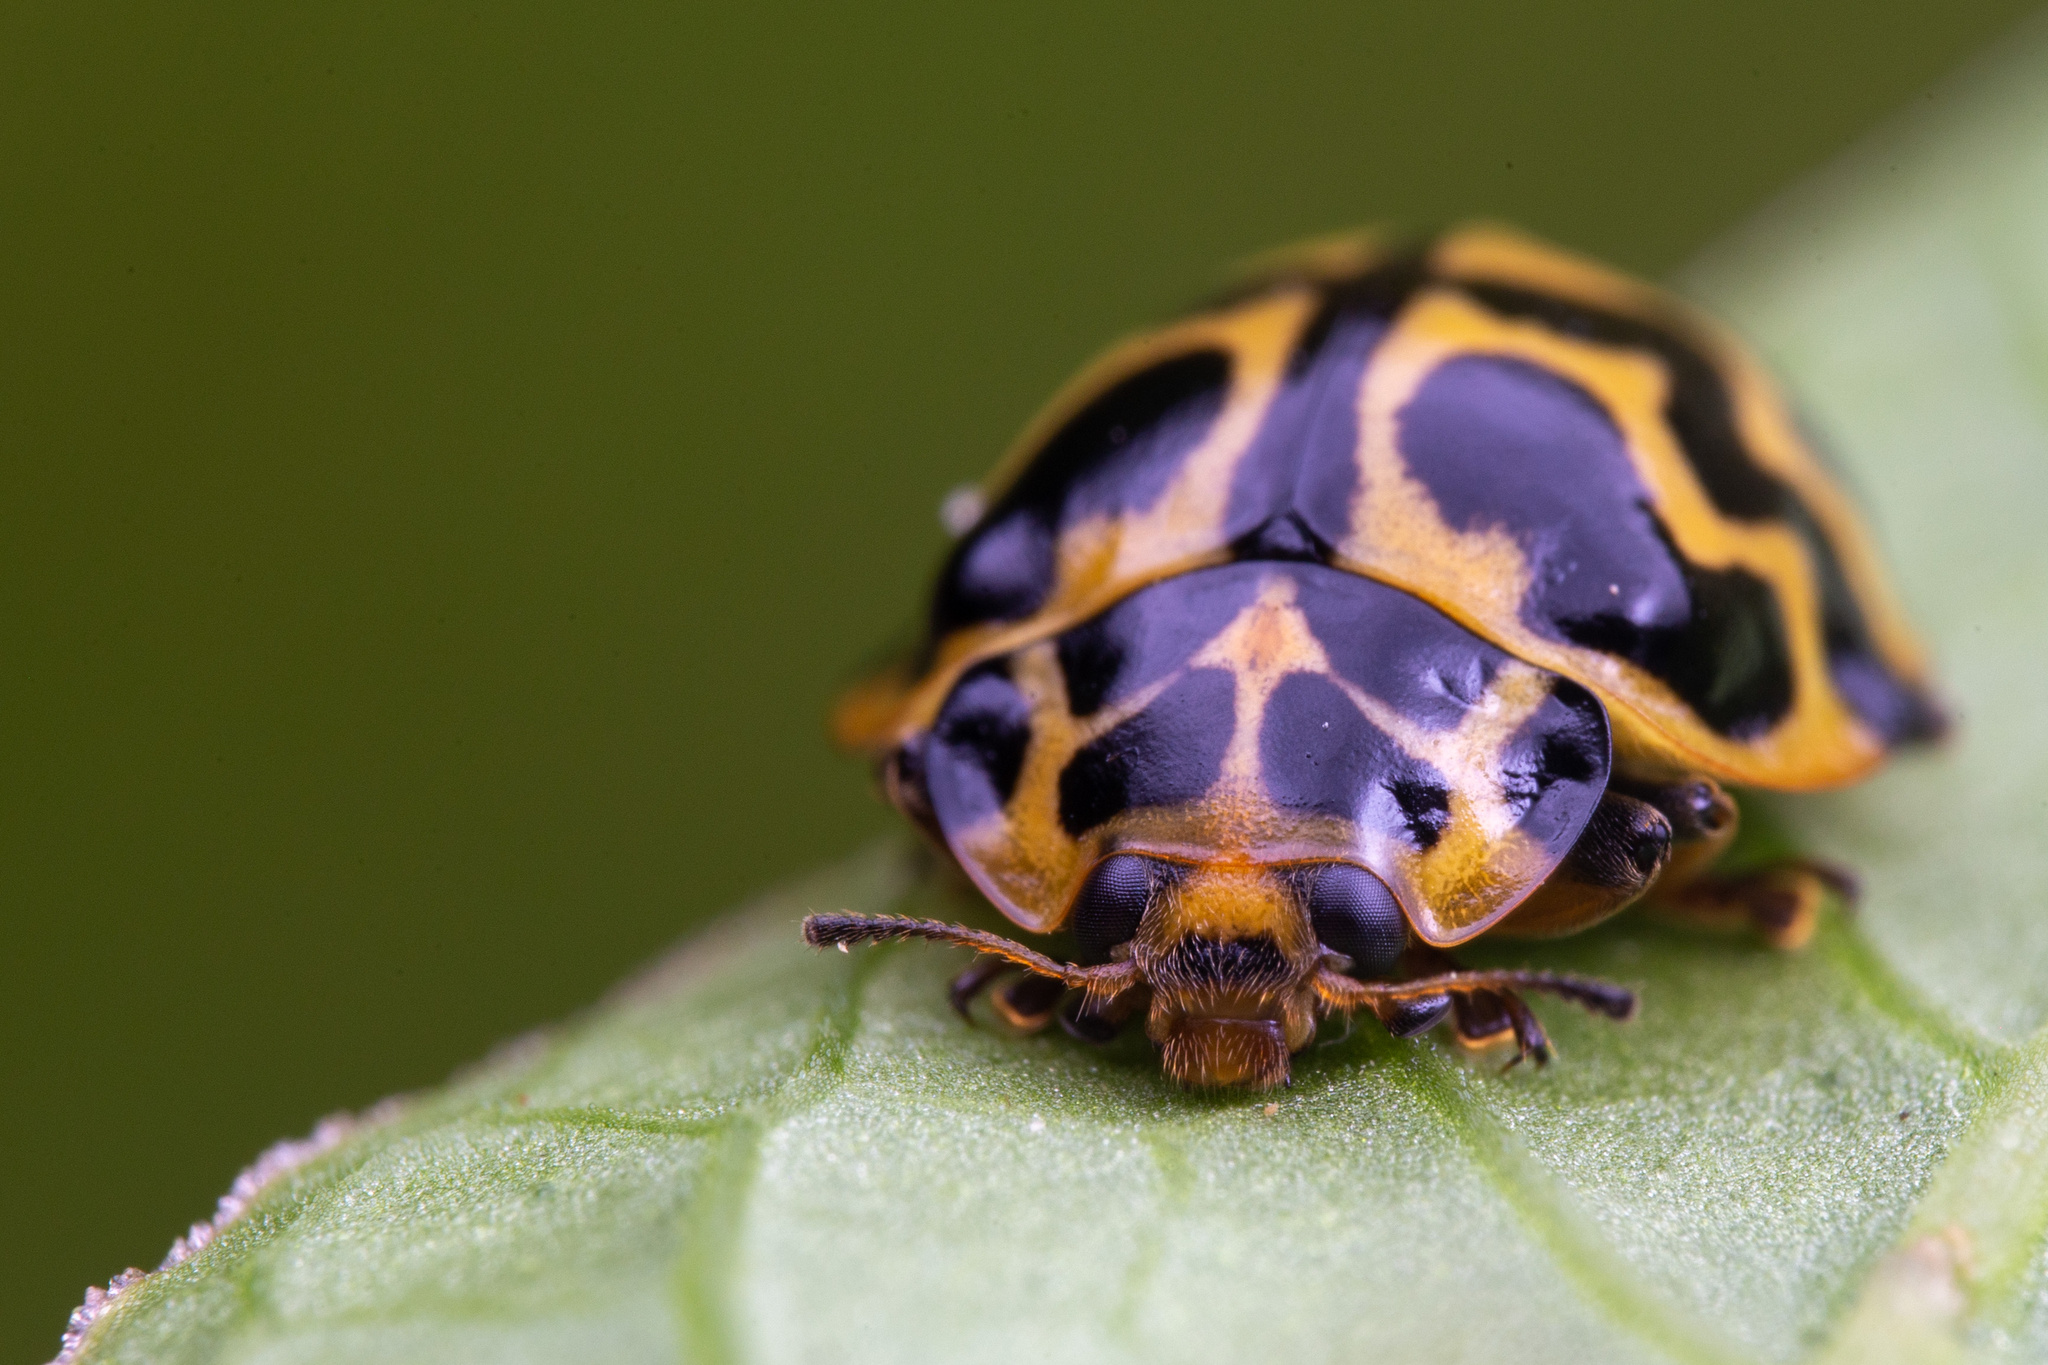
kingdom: Animalia
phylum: Arthropoda
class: Insecta
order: Coleoptera
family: Coccinellidae
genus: Cleobora
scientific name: Cleobora
